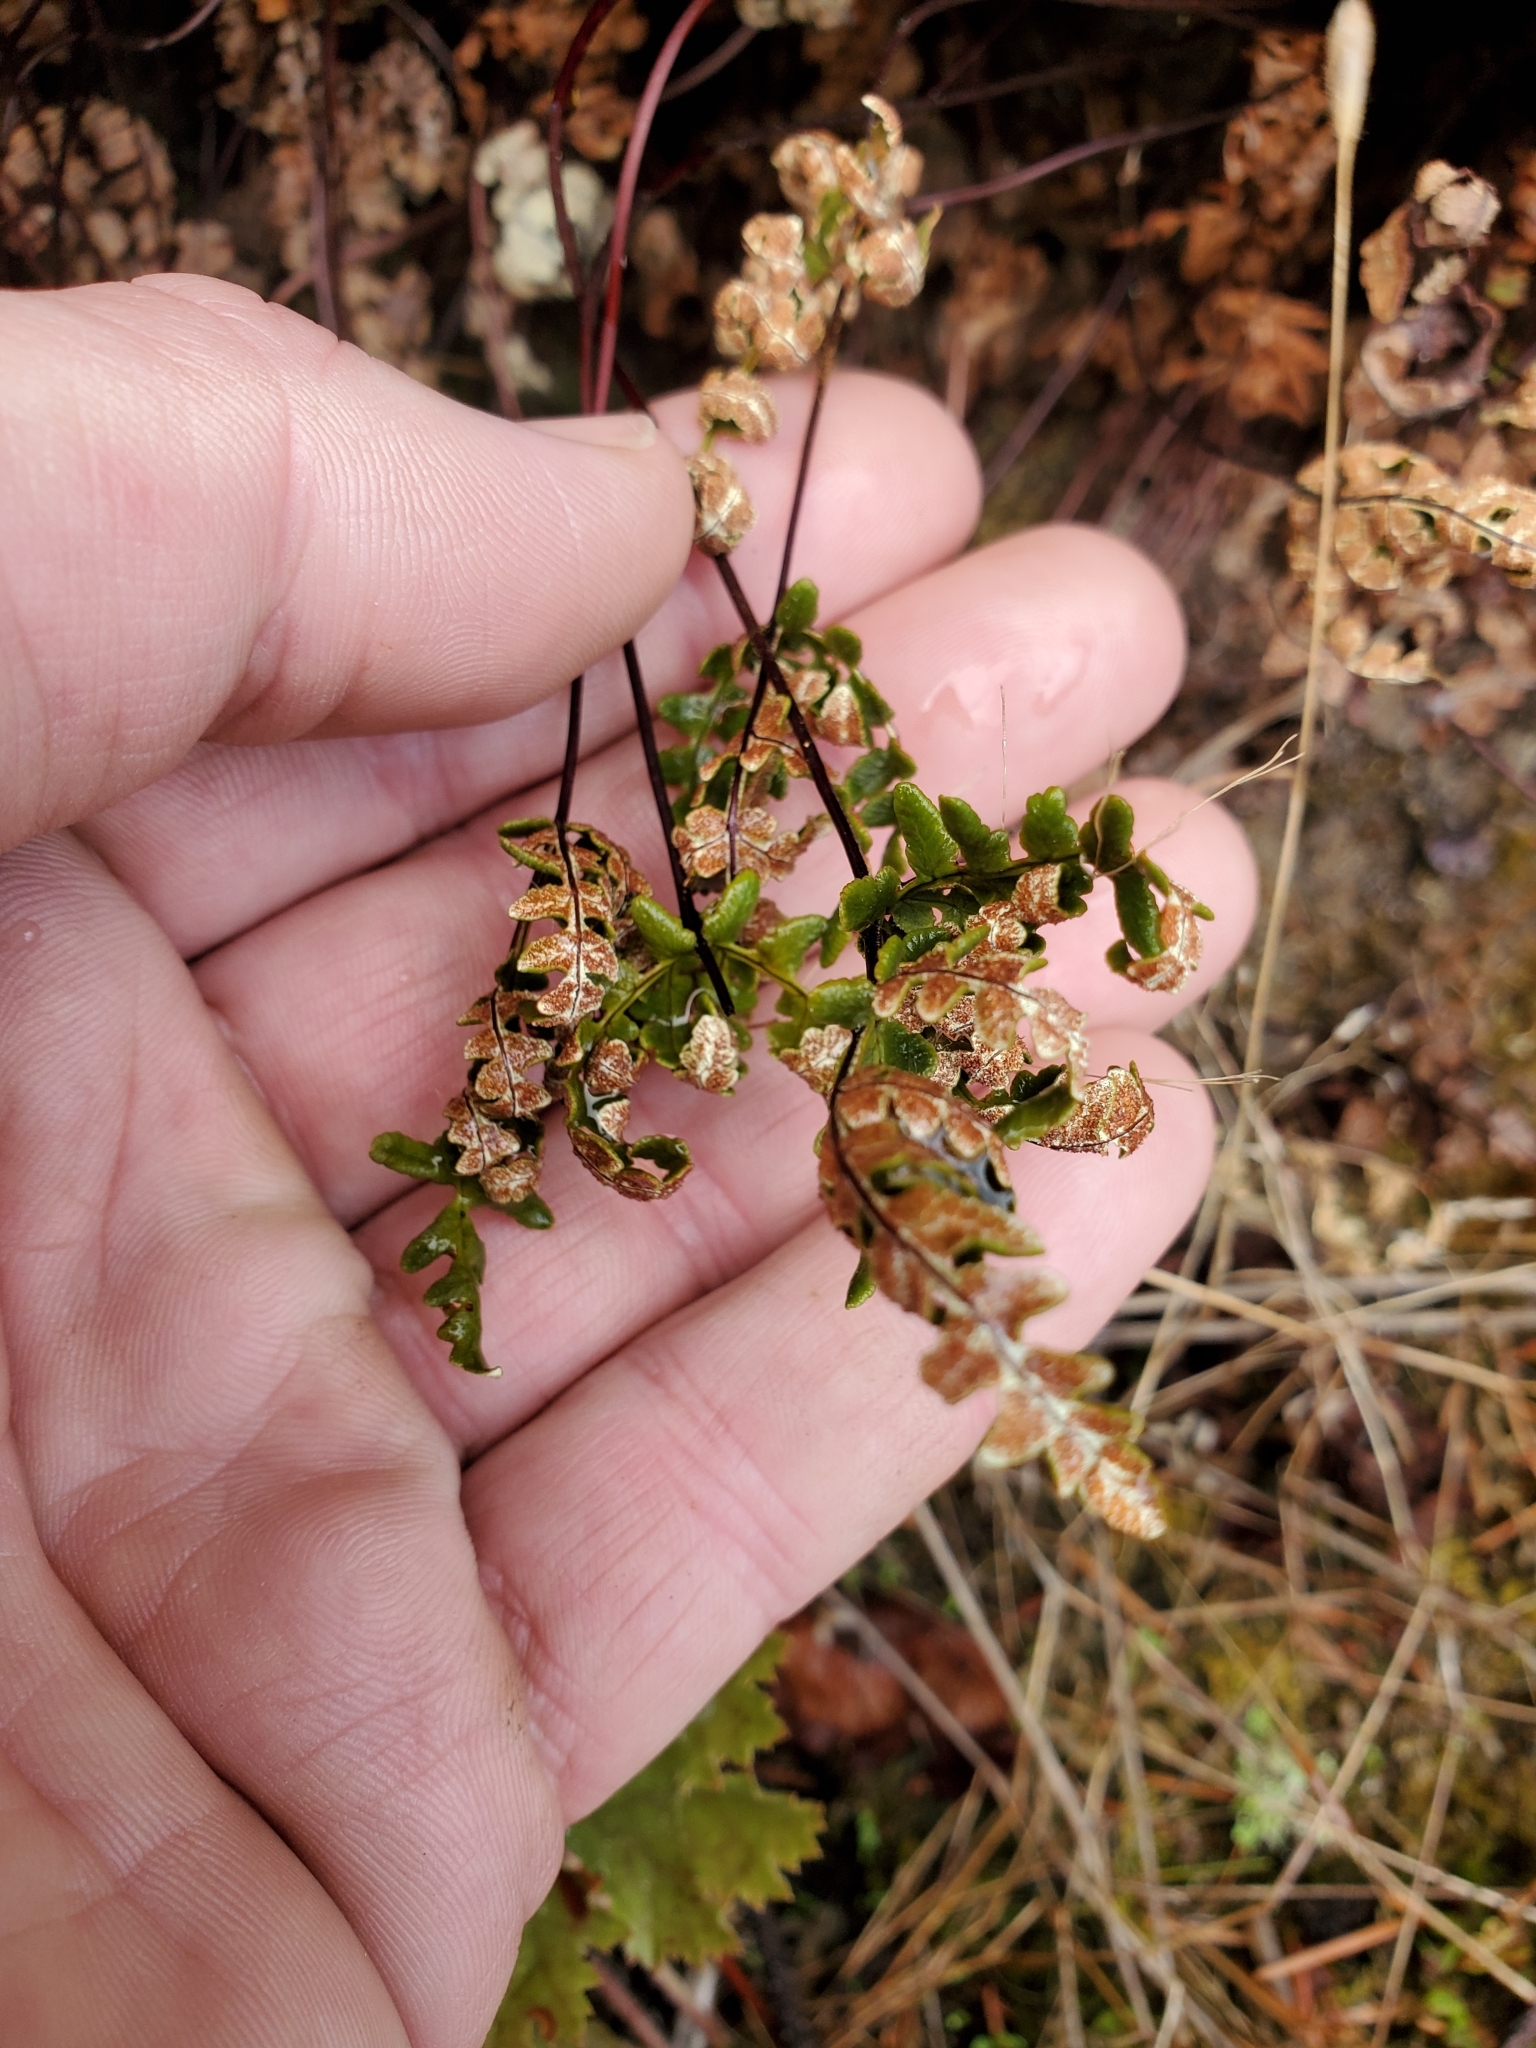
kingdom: Plantae
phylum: Tracheophyta
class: Polypodiopsida
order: Polypodiales
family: Pteridaceae
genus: Pentagramma
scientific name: Pentagramma triangularis
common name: Gold fern
